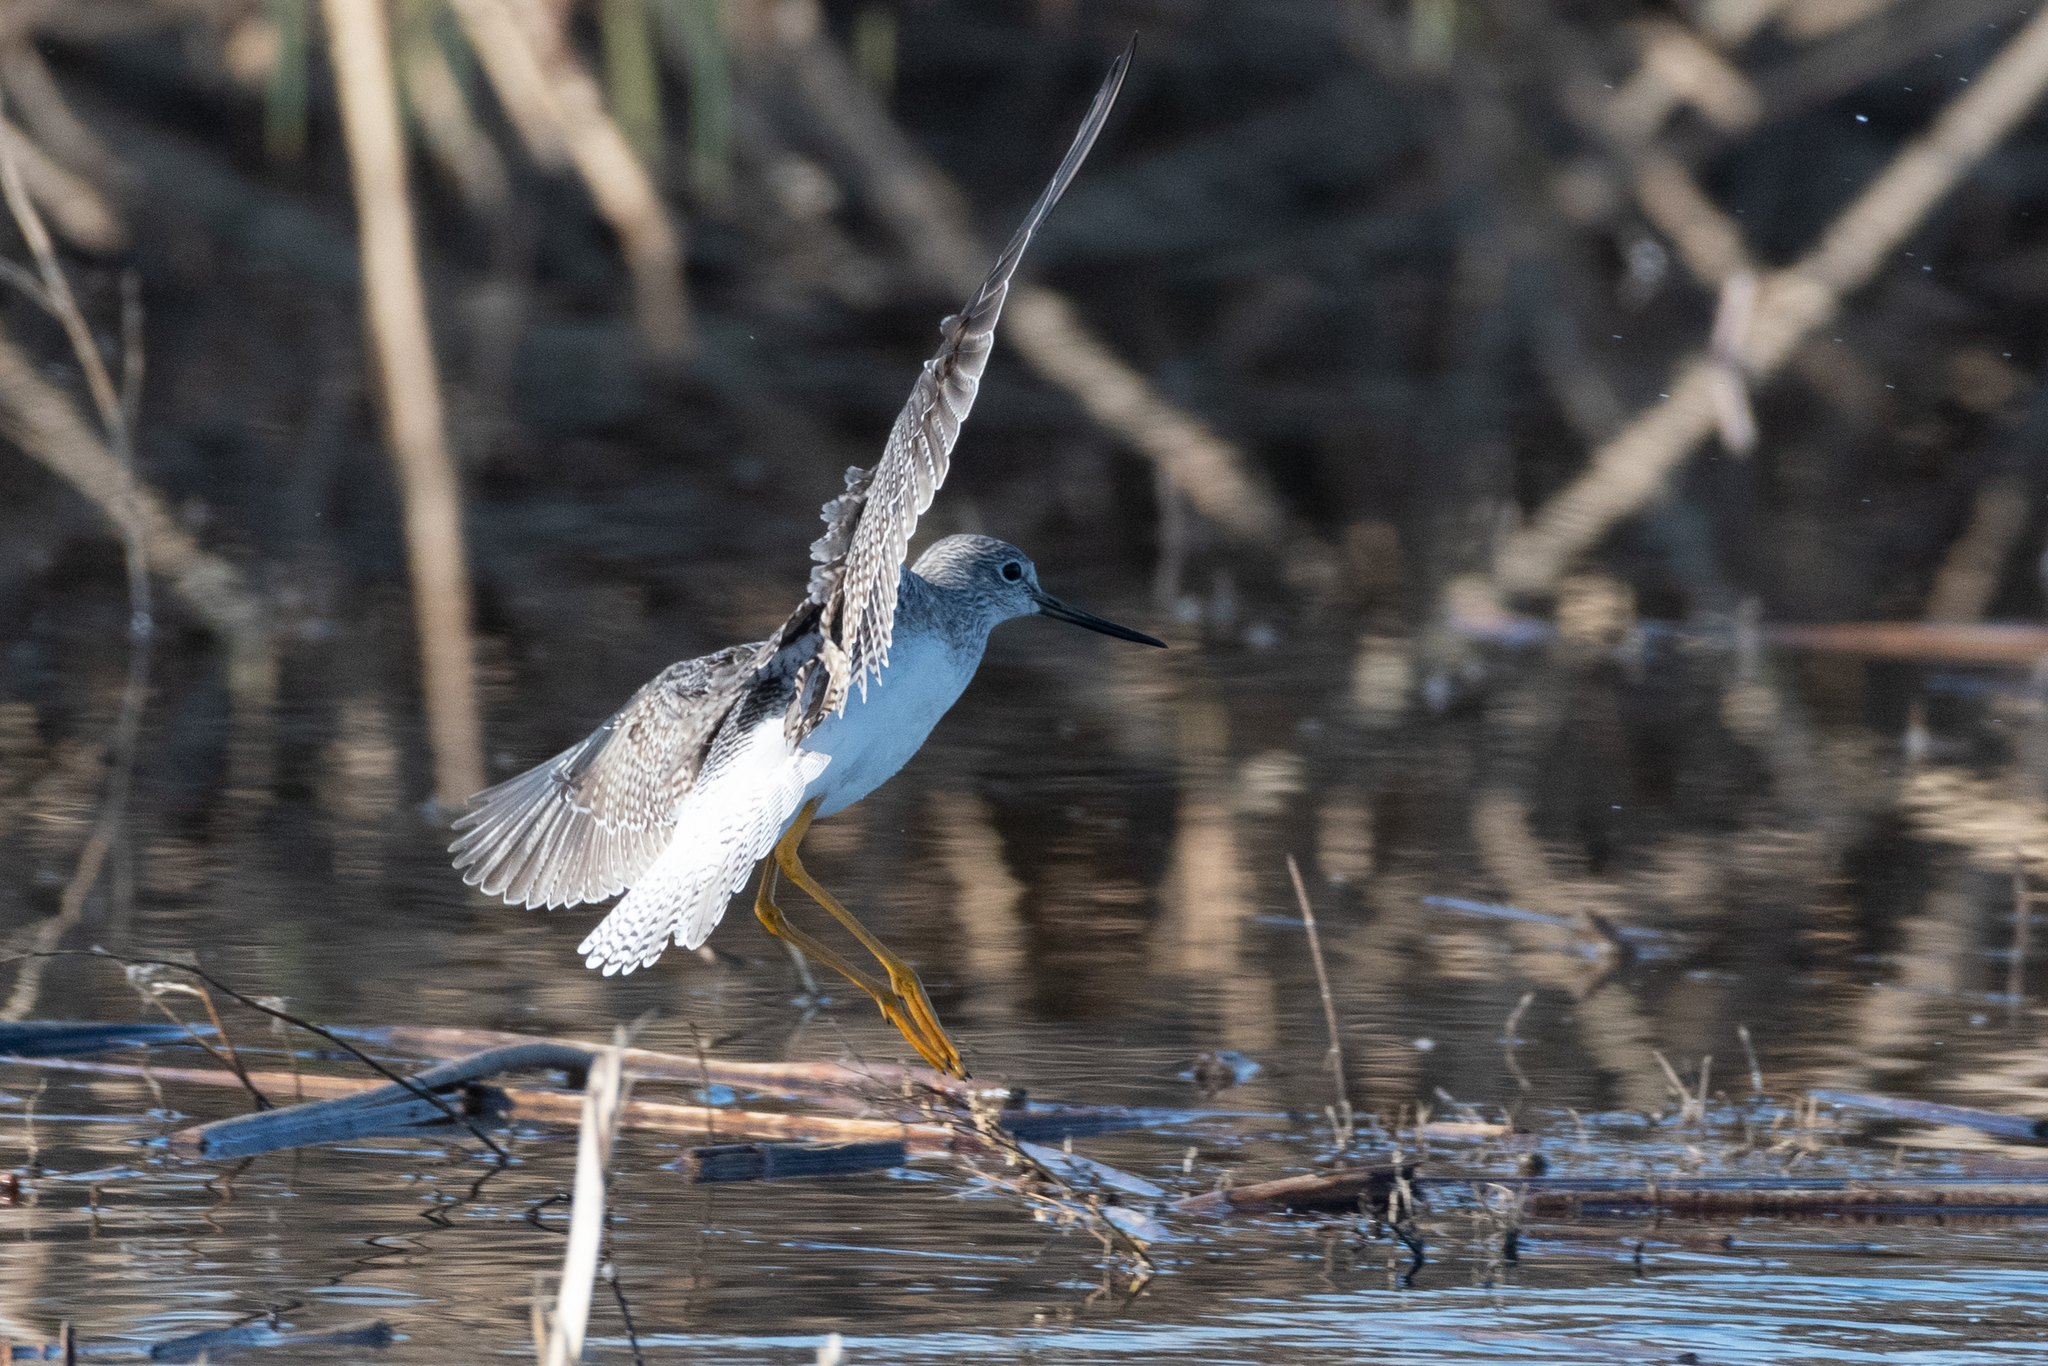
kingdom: Animalia
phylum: Chordata
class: Aves
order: Charadriiformes
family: Scolopacidae
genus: Tringa
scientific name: Tringa melanoleuca
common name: Greater yellowlegs
